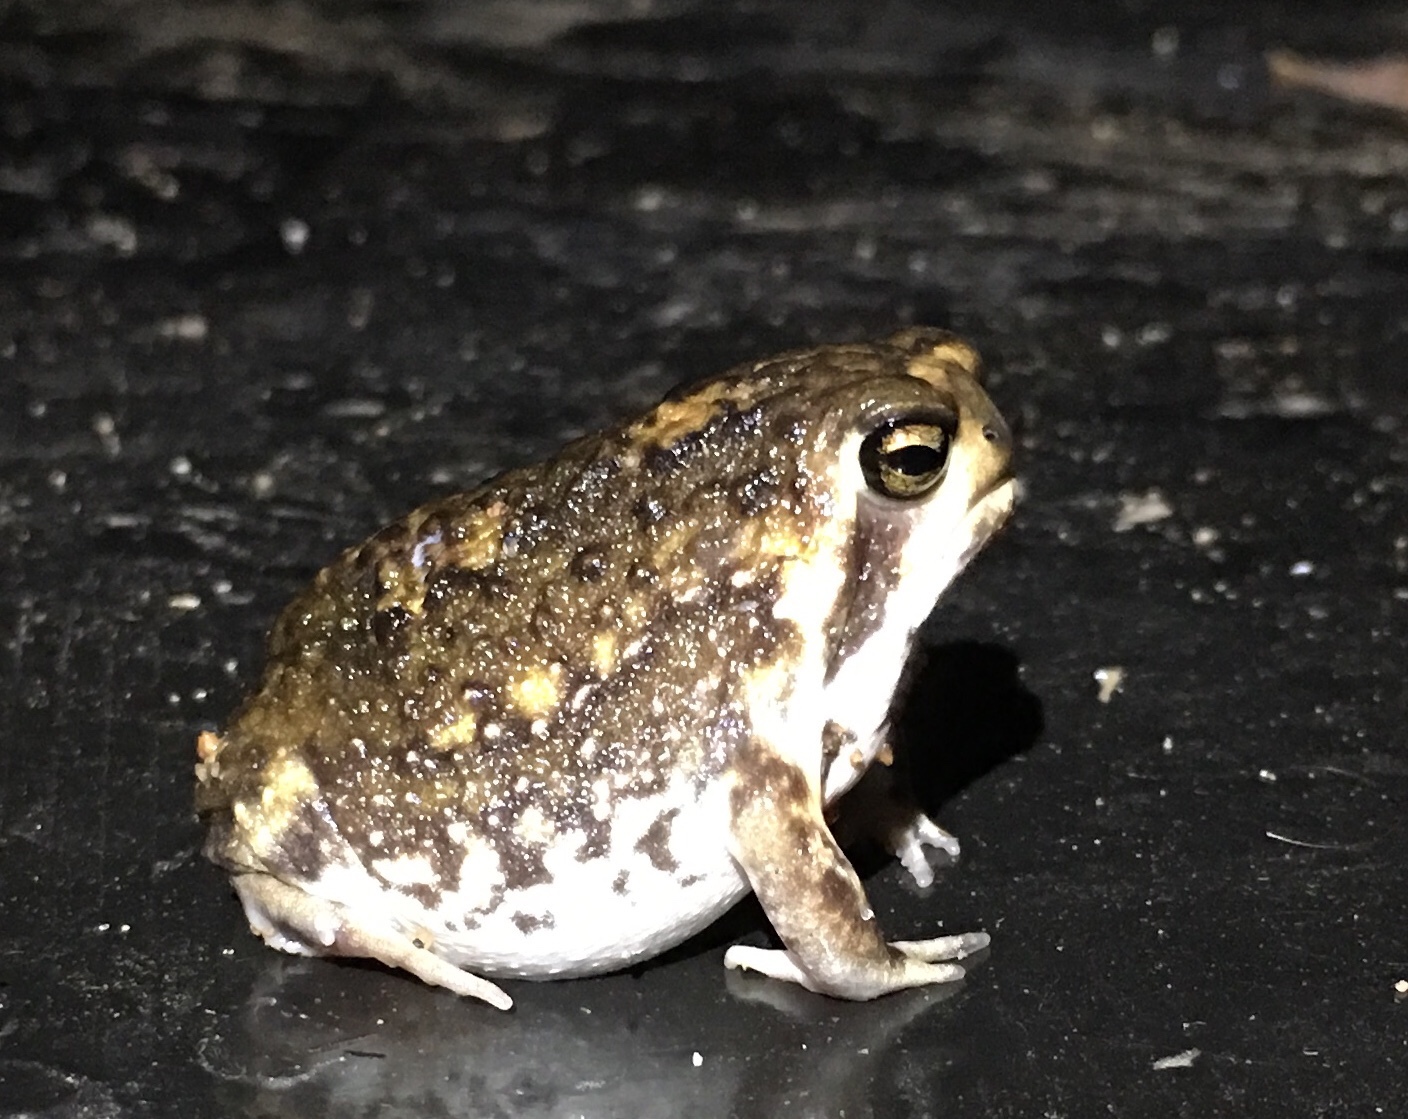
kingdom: Animalia
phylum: Chordata
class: Amphibia
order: Anura
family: Brevicipitidae
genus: Breviceps
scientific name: Breviceps adspersus
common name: Common rain frog
